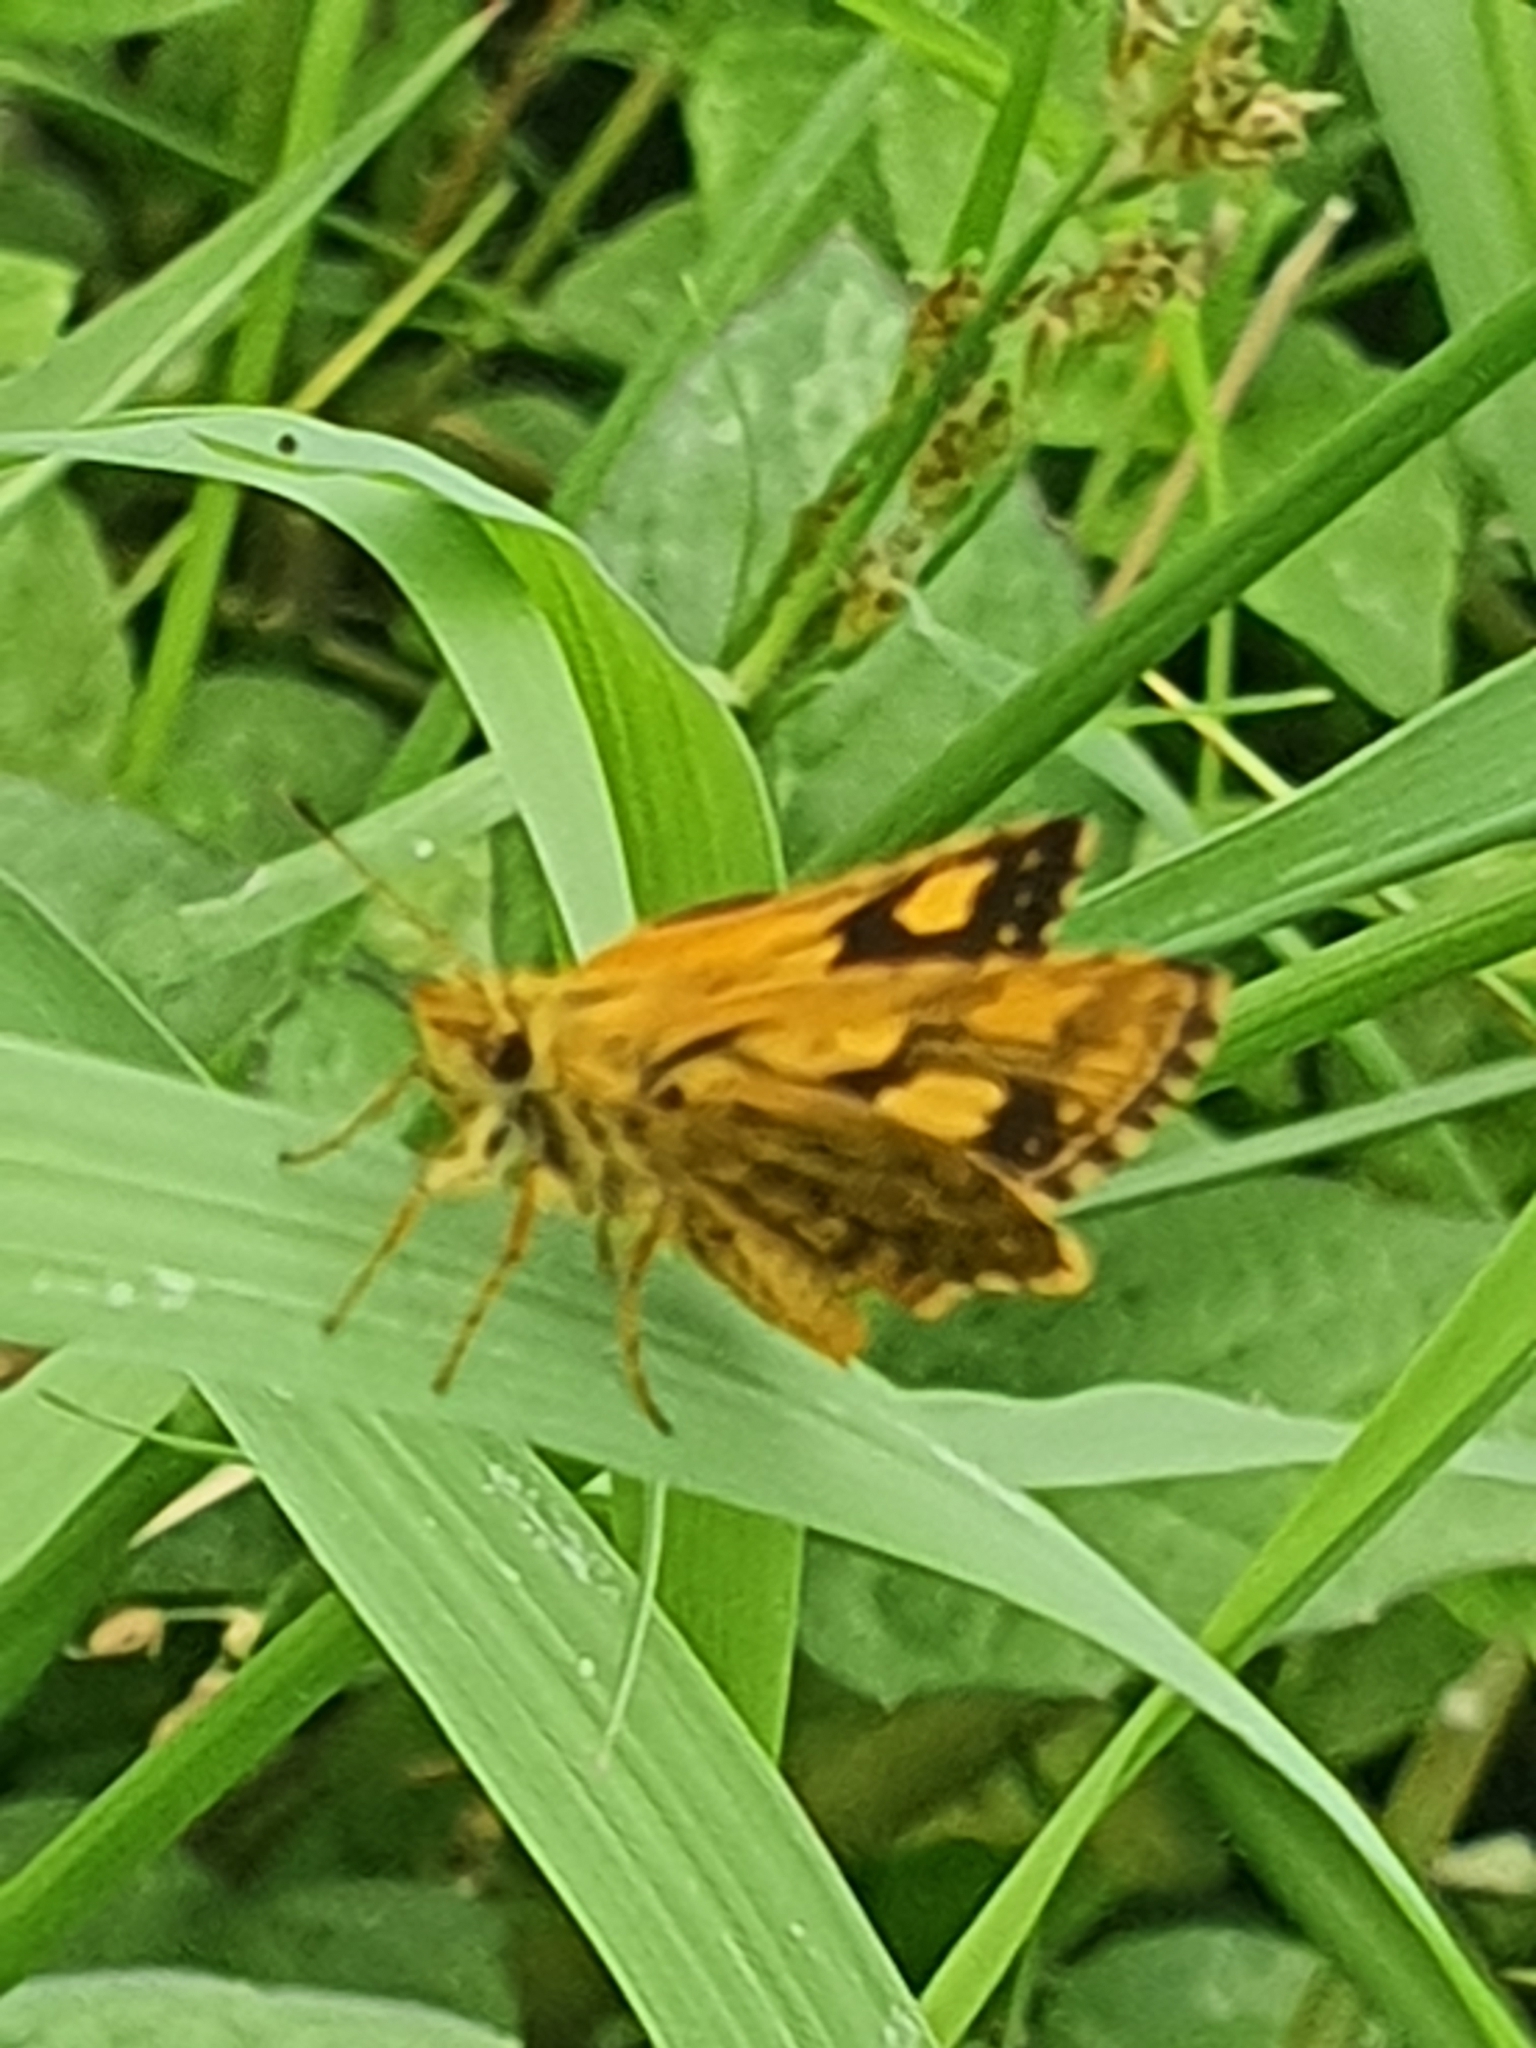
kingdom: Animalia
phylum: Arthropoda
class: Insecta
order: Lepidoptera
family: Hesperiidae
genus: Ampittia
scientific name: Ampittia dioscorides
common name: Common bush hopper
